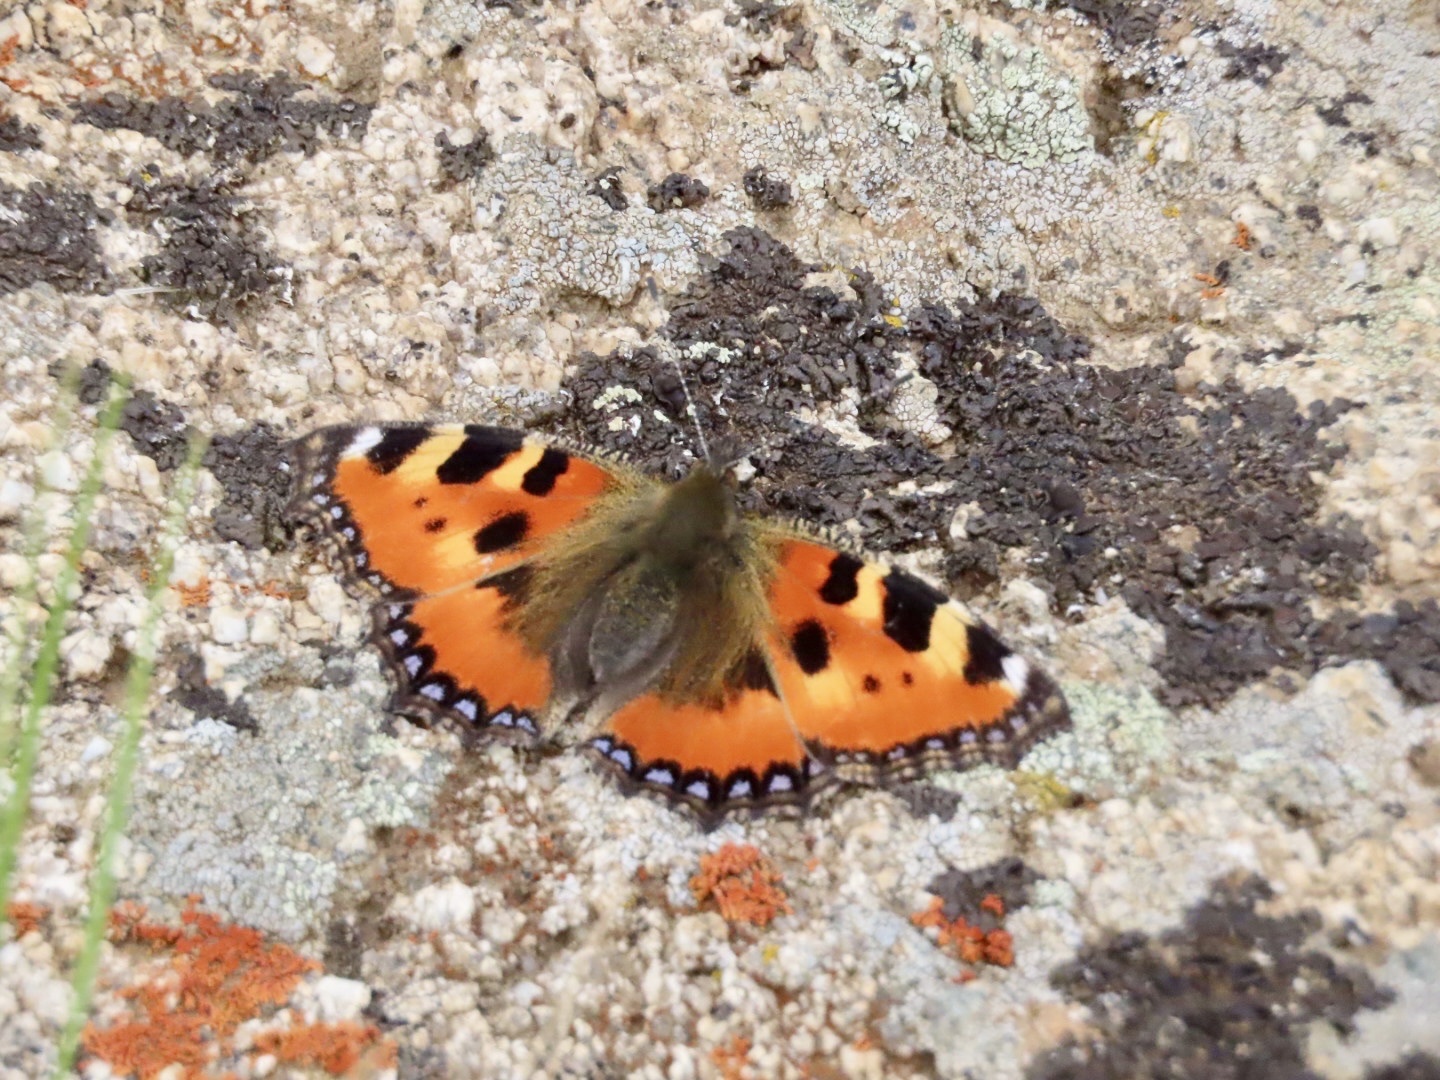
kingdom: Animalia
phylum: Arthropoda
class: Insecta
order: Lepidoptera
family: Nymphalidae
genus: Aglais
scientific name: Aglais urticae
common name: Small tortoiseshell
